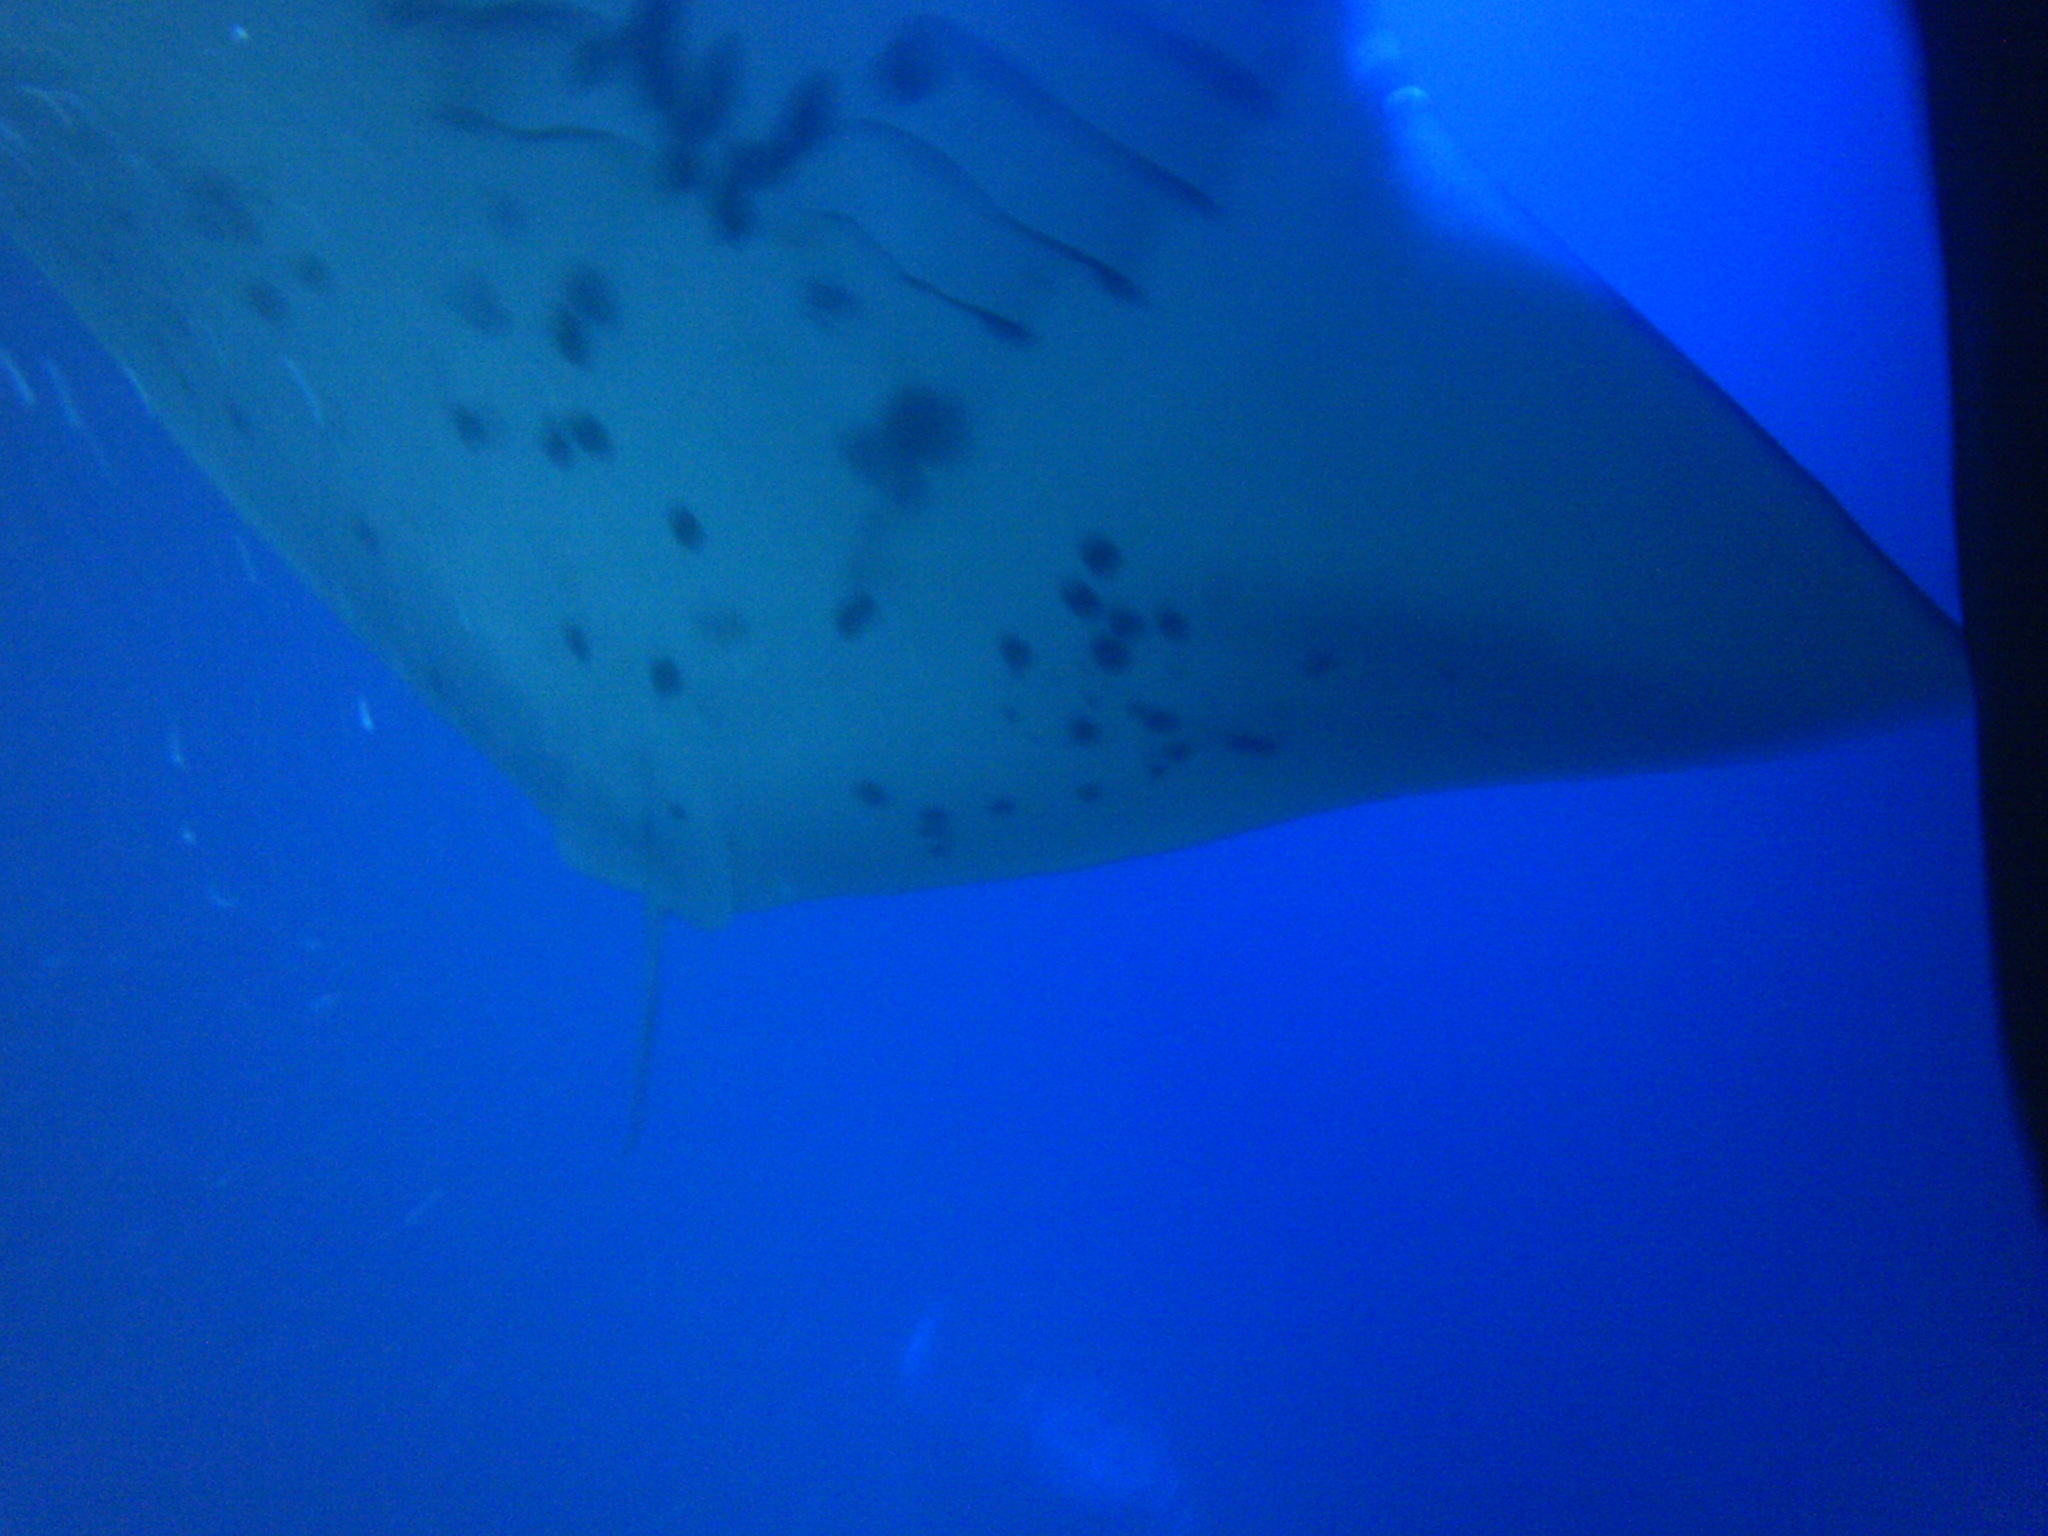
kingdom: Animalia
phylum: Chordata
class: Elasmobranchii
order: Myliobatiformes
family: Myliobatidae
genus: Mobula
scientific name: Mobula alfredi
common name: Reef manta ray
